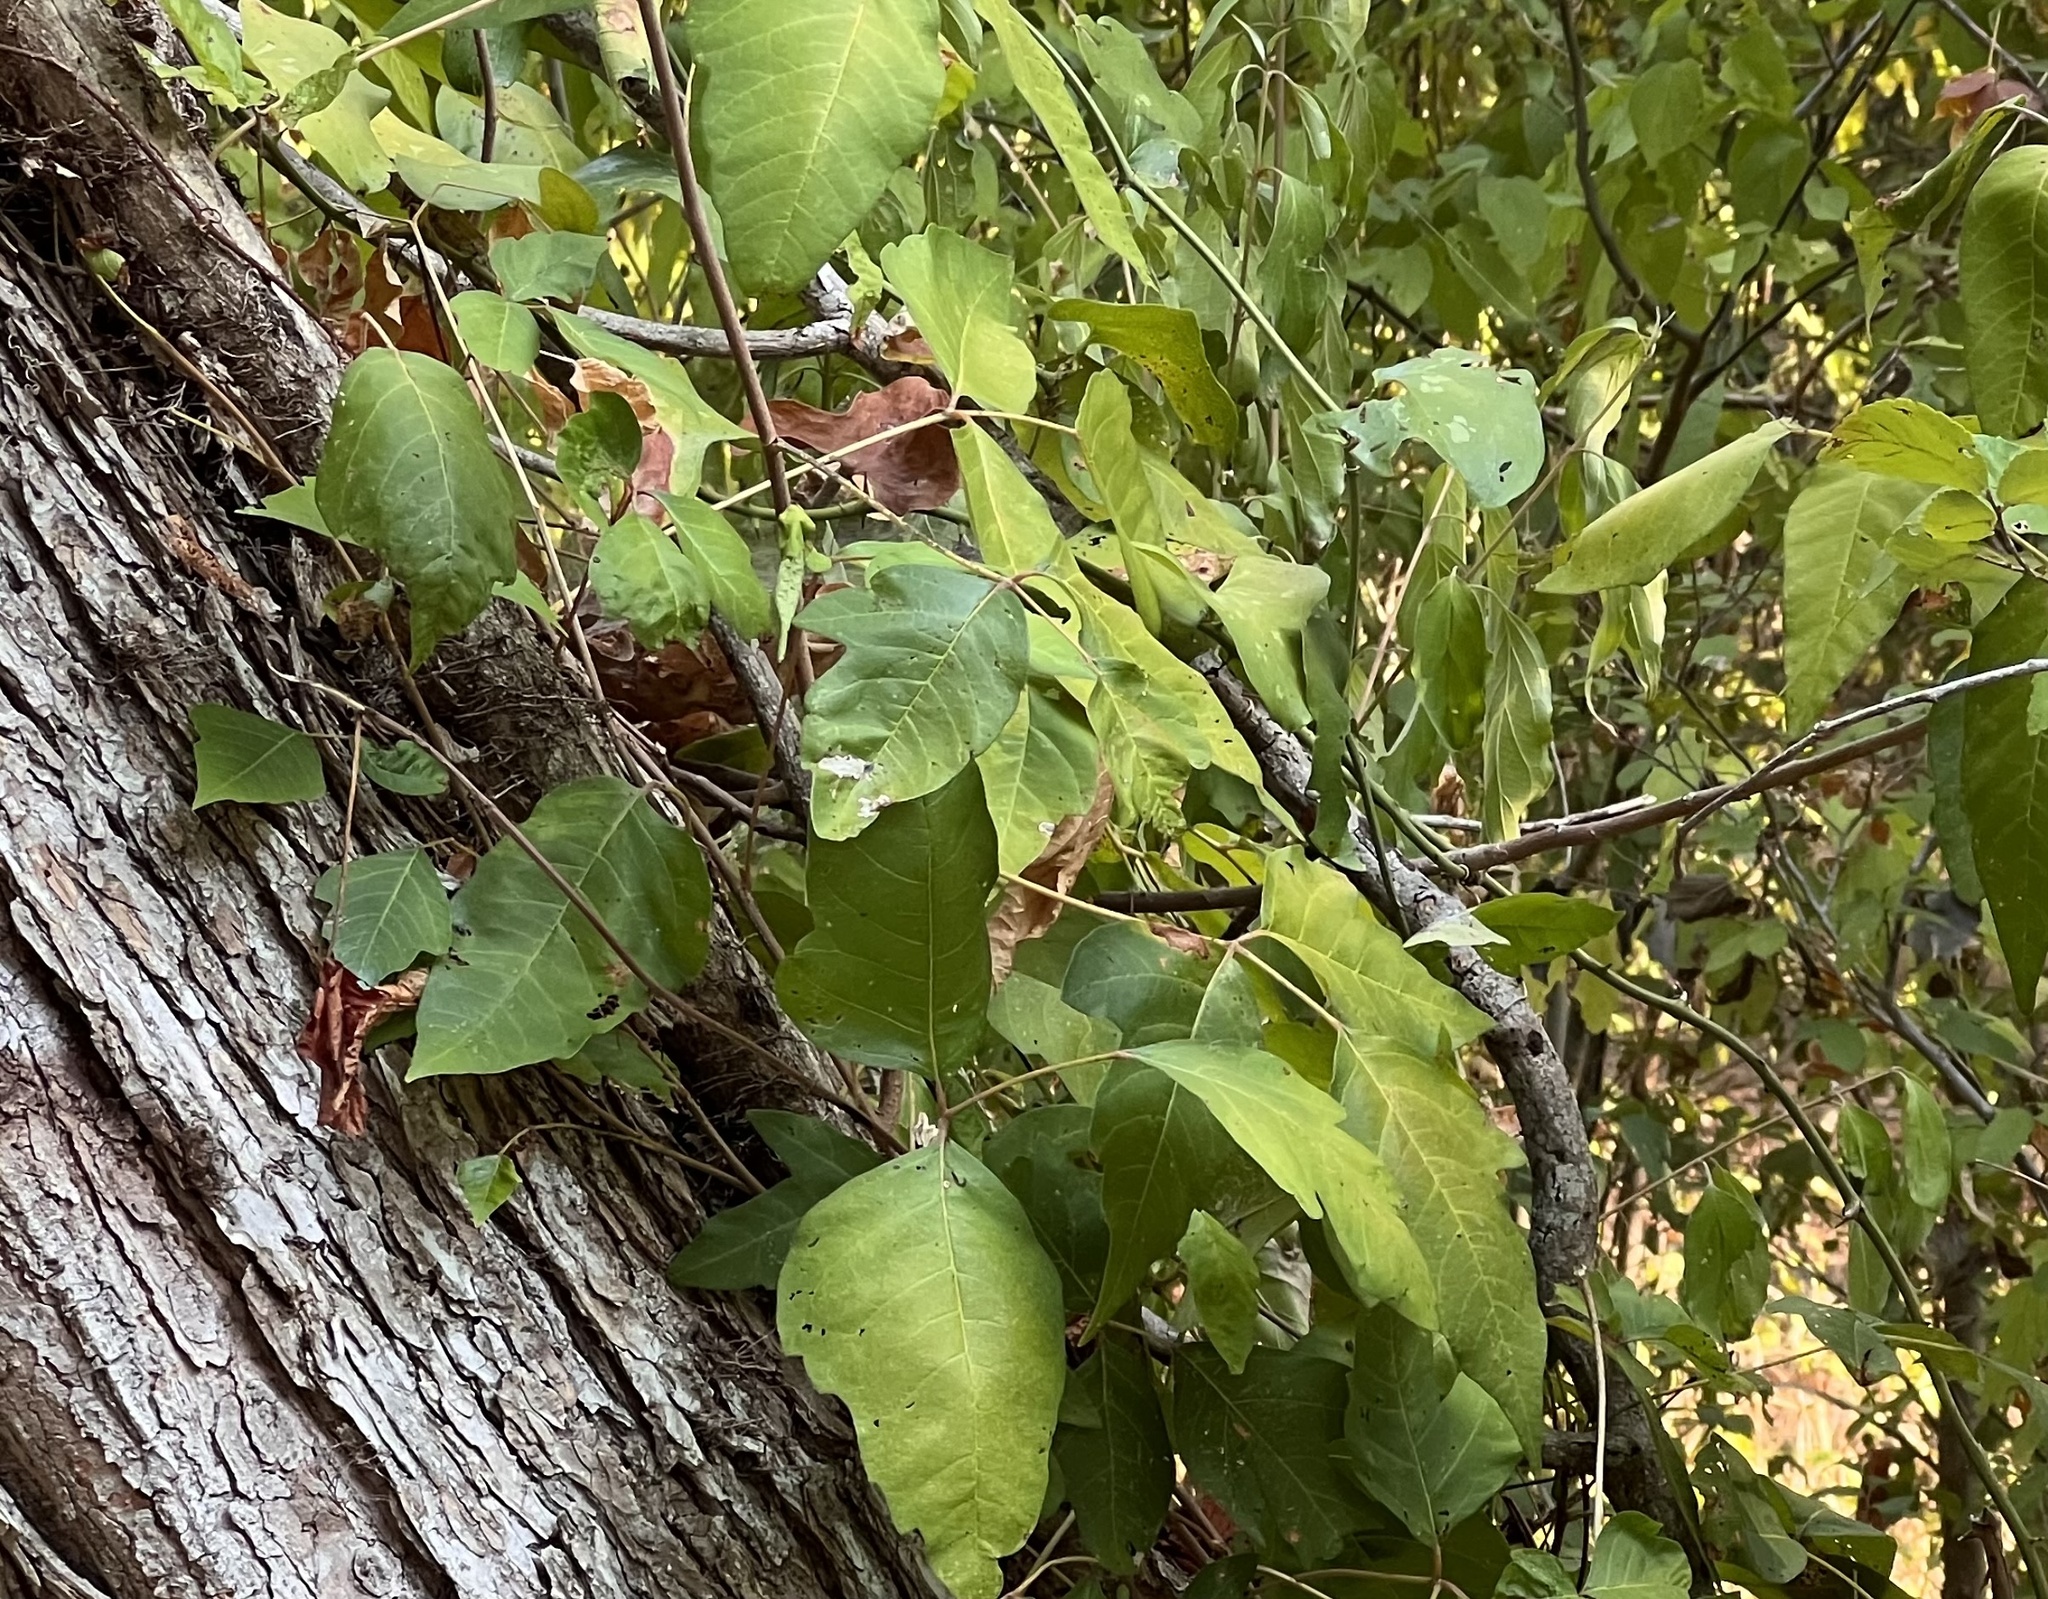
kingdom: Plantae
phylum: Tracheophyta
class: Magnoliopsida
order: Sapindales
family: Anacardiaceae
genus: Toxicodendron
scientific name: Toxicodendron radicans
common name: Poison ivy
